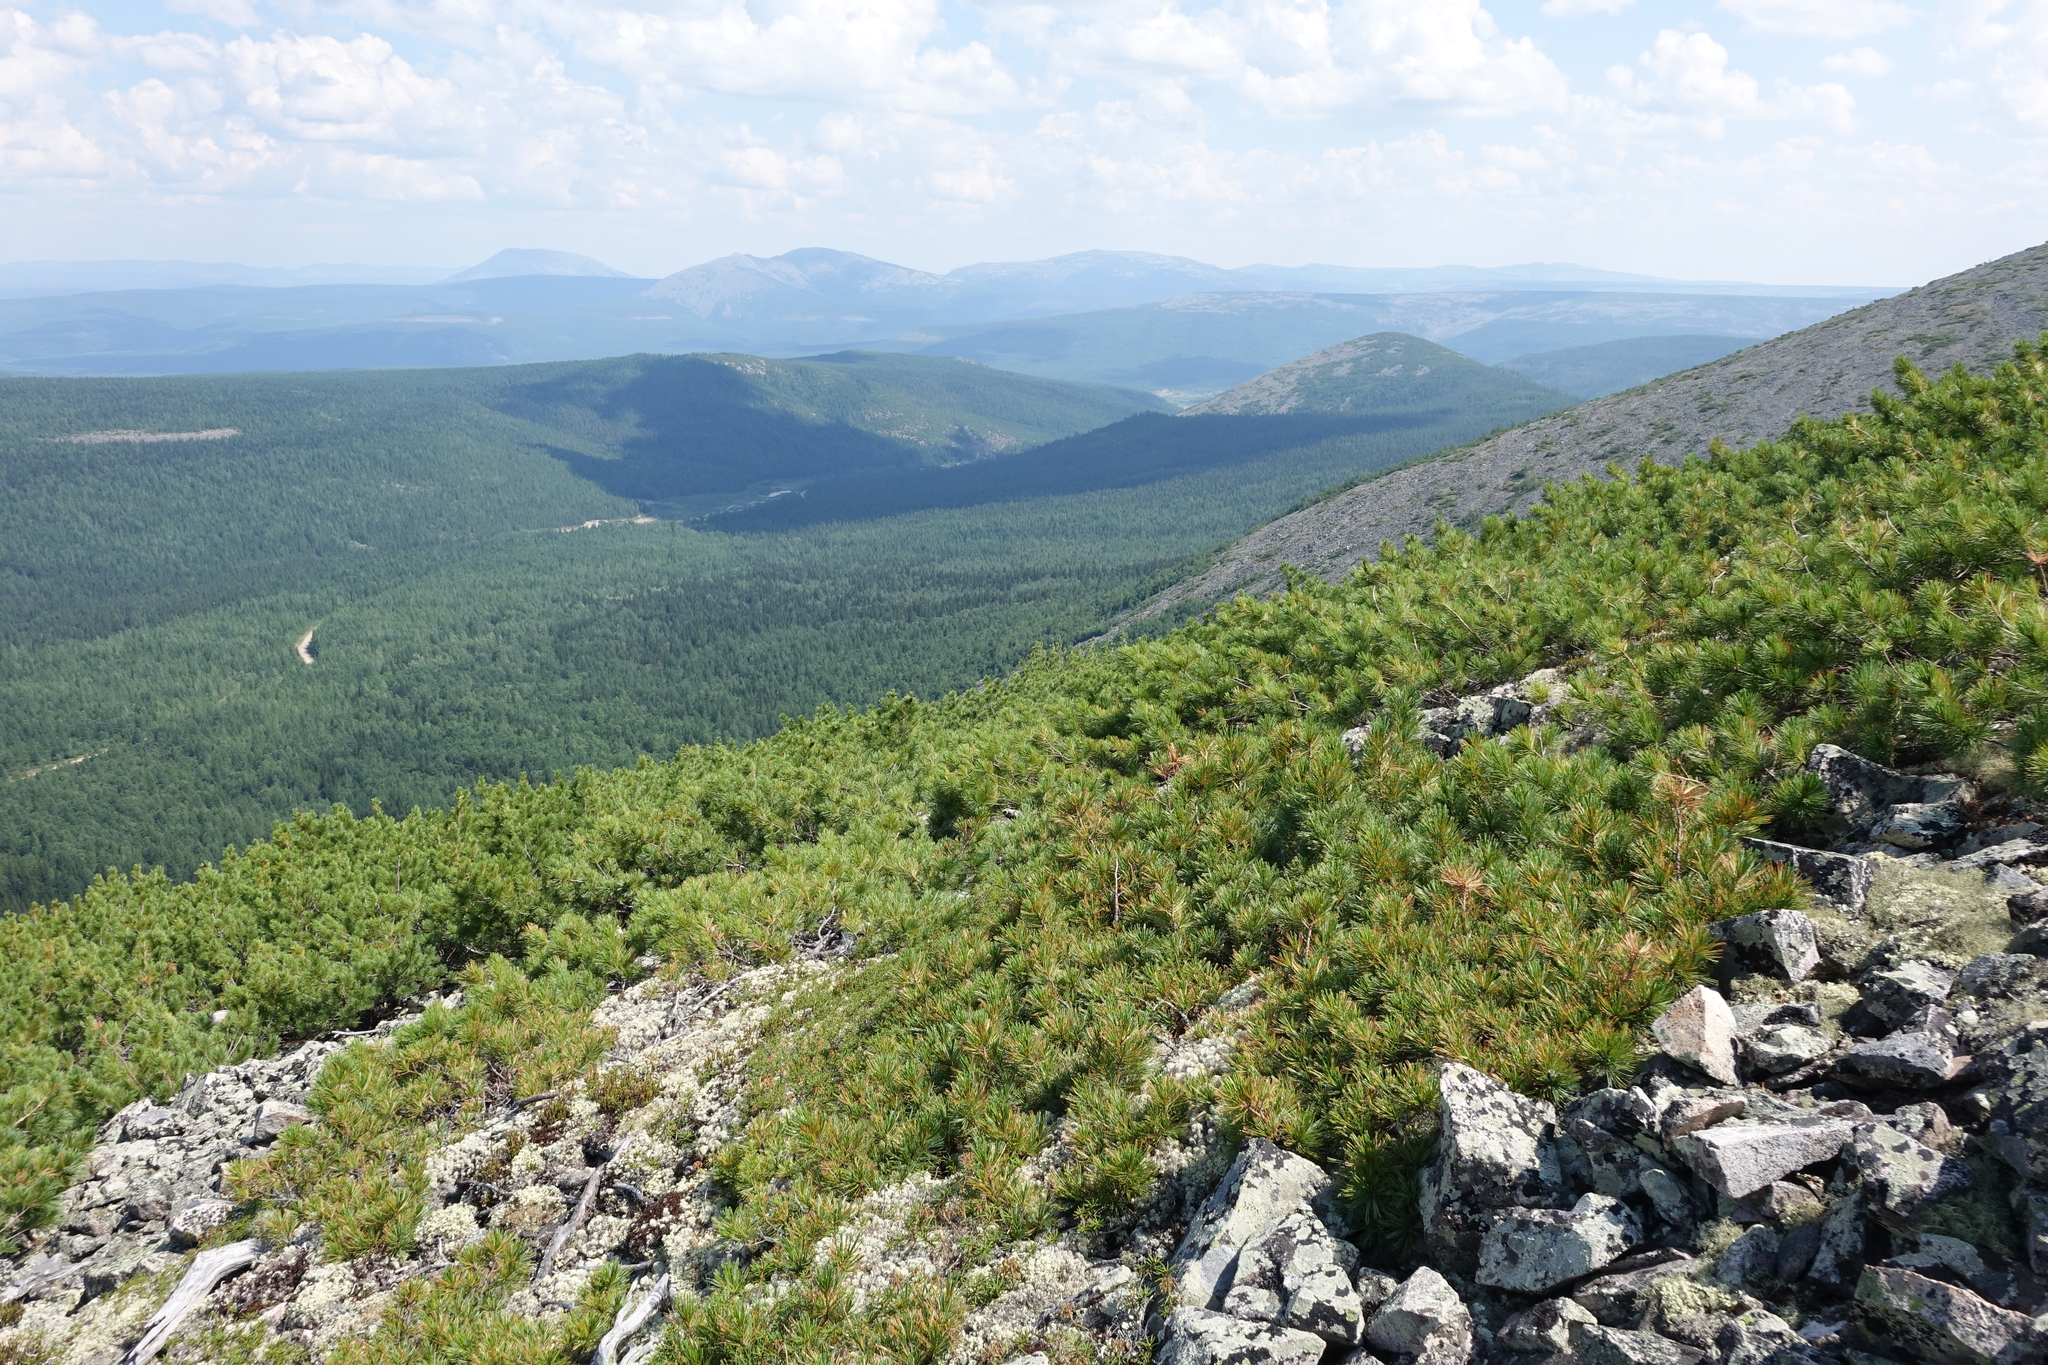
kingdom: Plantae
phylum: Tracheophyta
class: Pinopsida
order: Pinales
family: Pinaceae
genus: Pinus
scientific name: Pinus pumila
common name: Dwarf siberian pine
